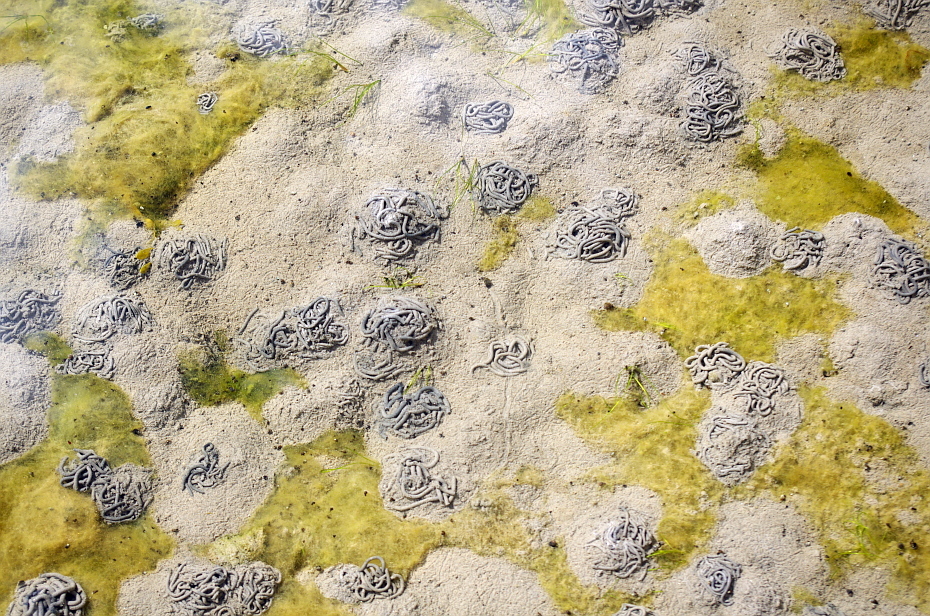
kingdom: Animalia
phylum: Annelida
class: Polychaeta
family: Arenicolidae
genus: Arenicola
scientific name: Arenicola marina
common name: Blow lugworm
